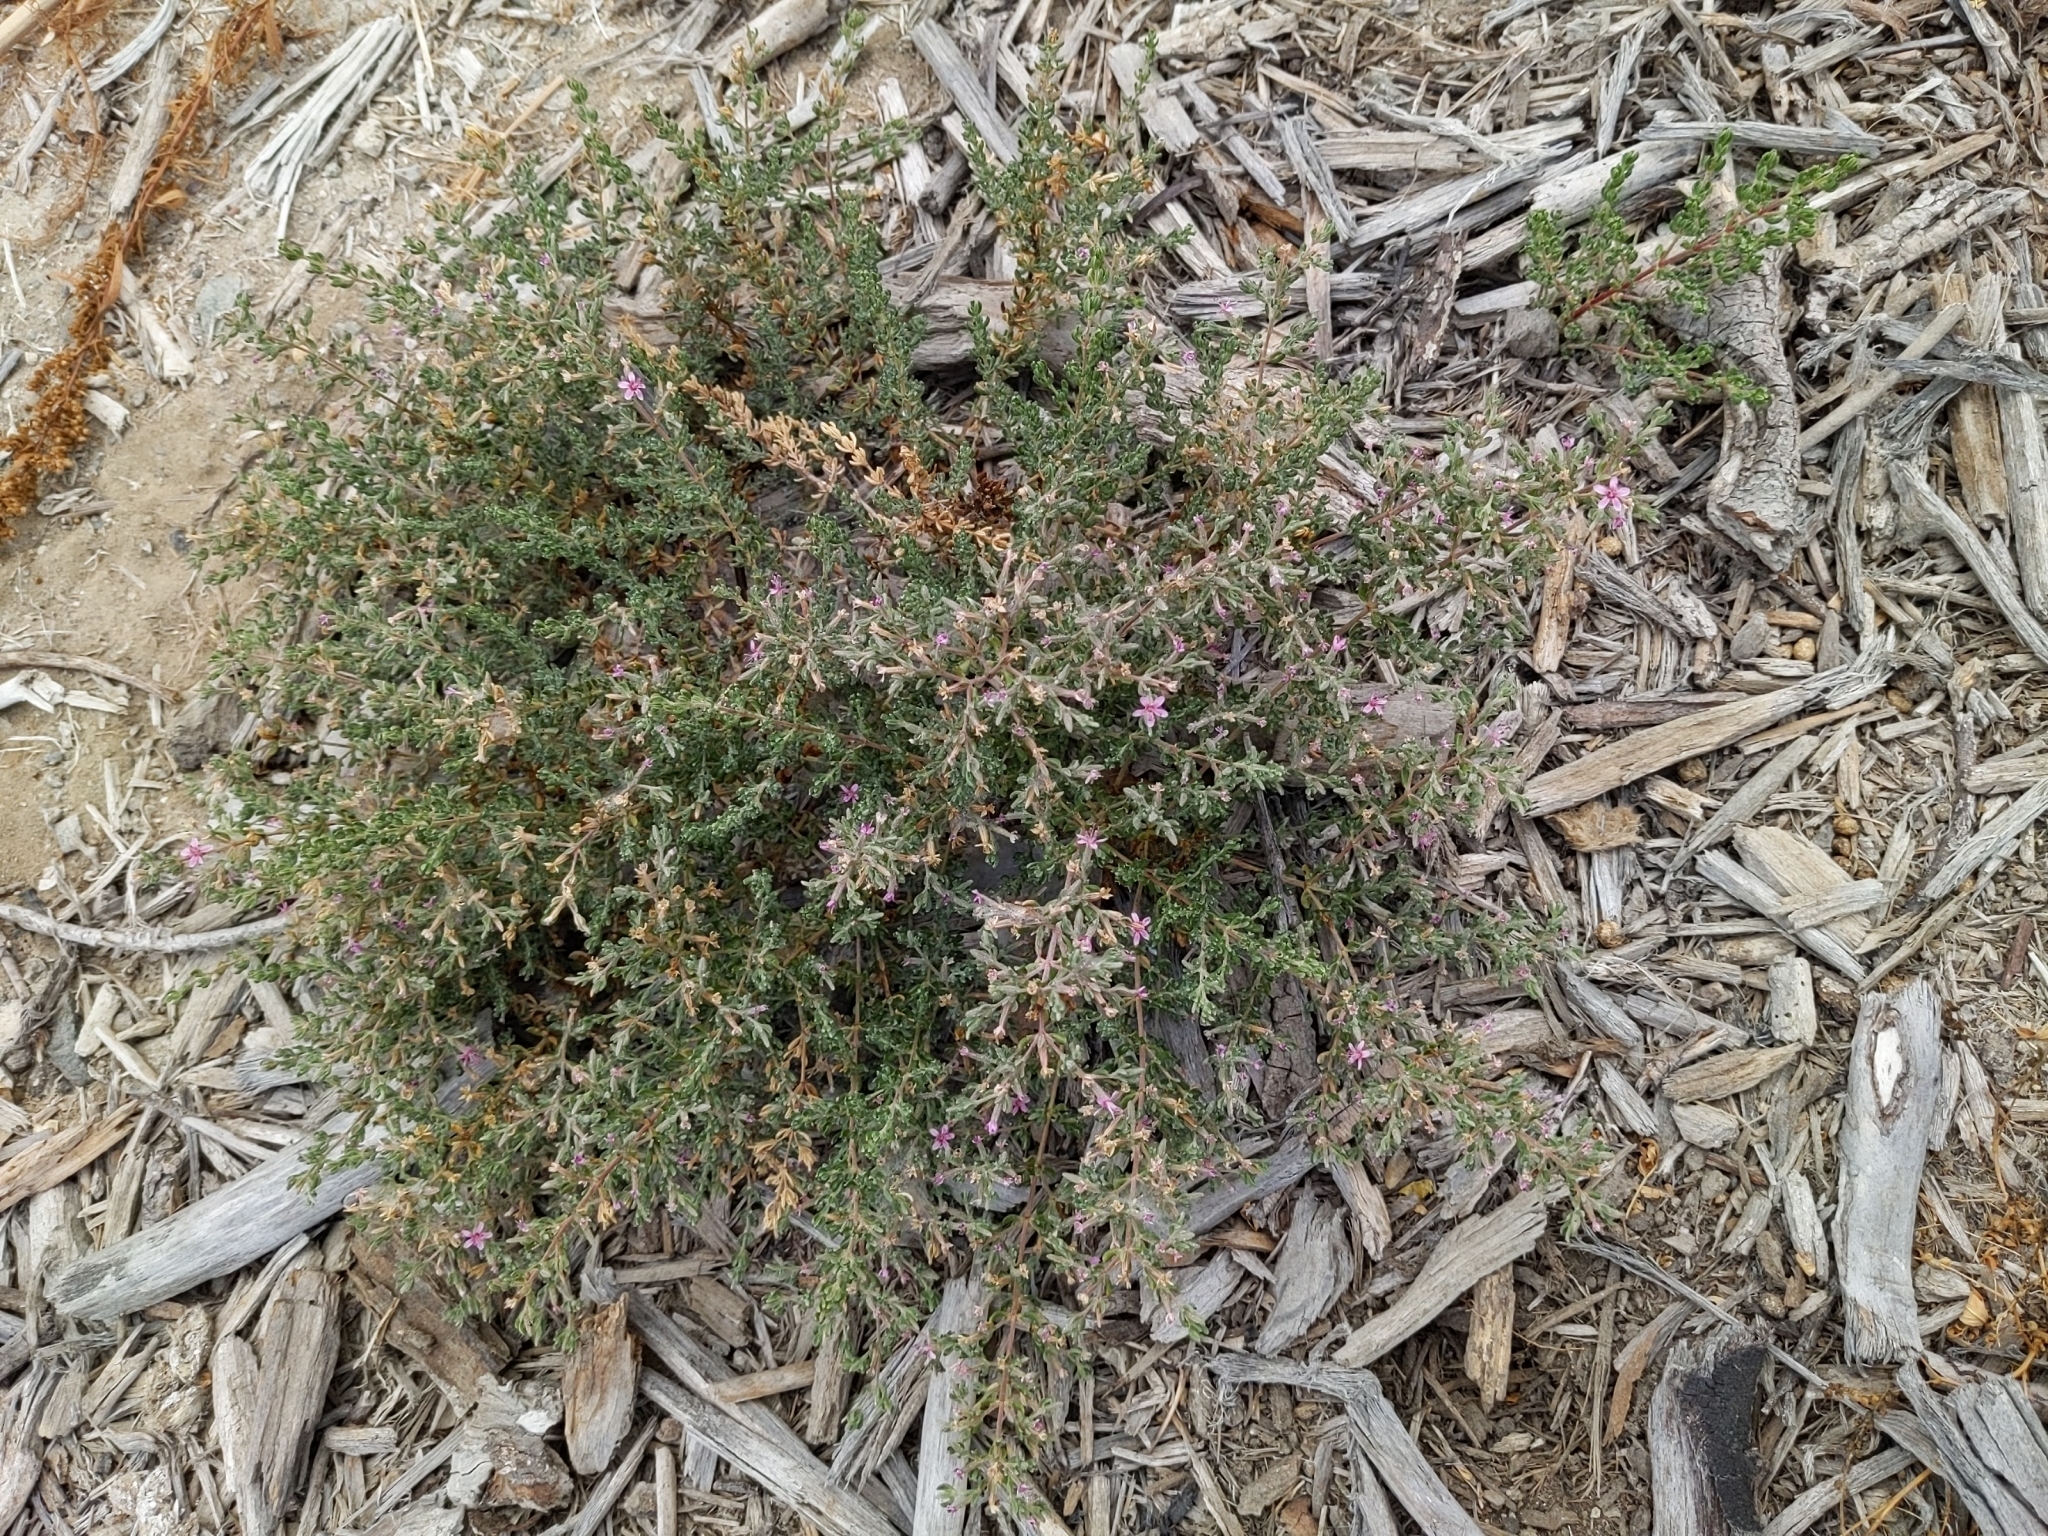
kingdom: Plantae
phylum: Tracheophyta
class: Magnoliopsida
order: Caryophyllales
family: Frankeniaceae
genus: Frankenia
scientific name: Frankenia salina
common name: Alkali seaheath
